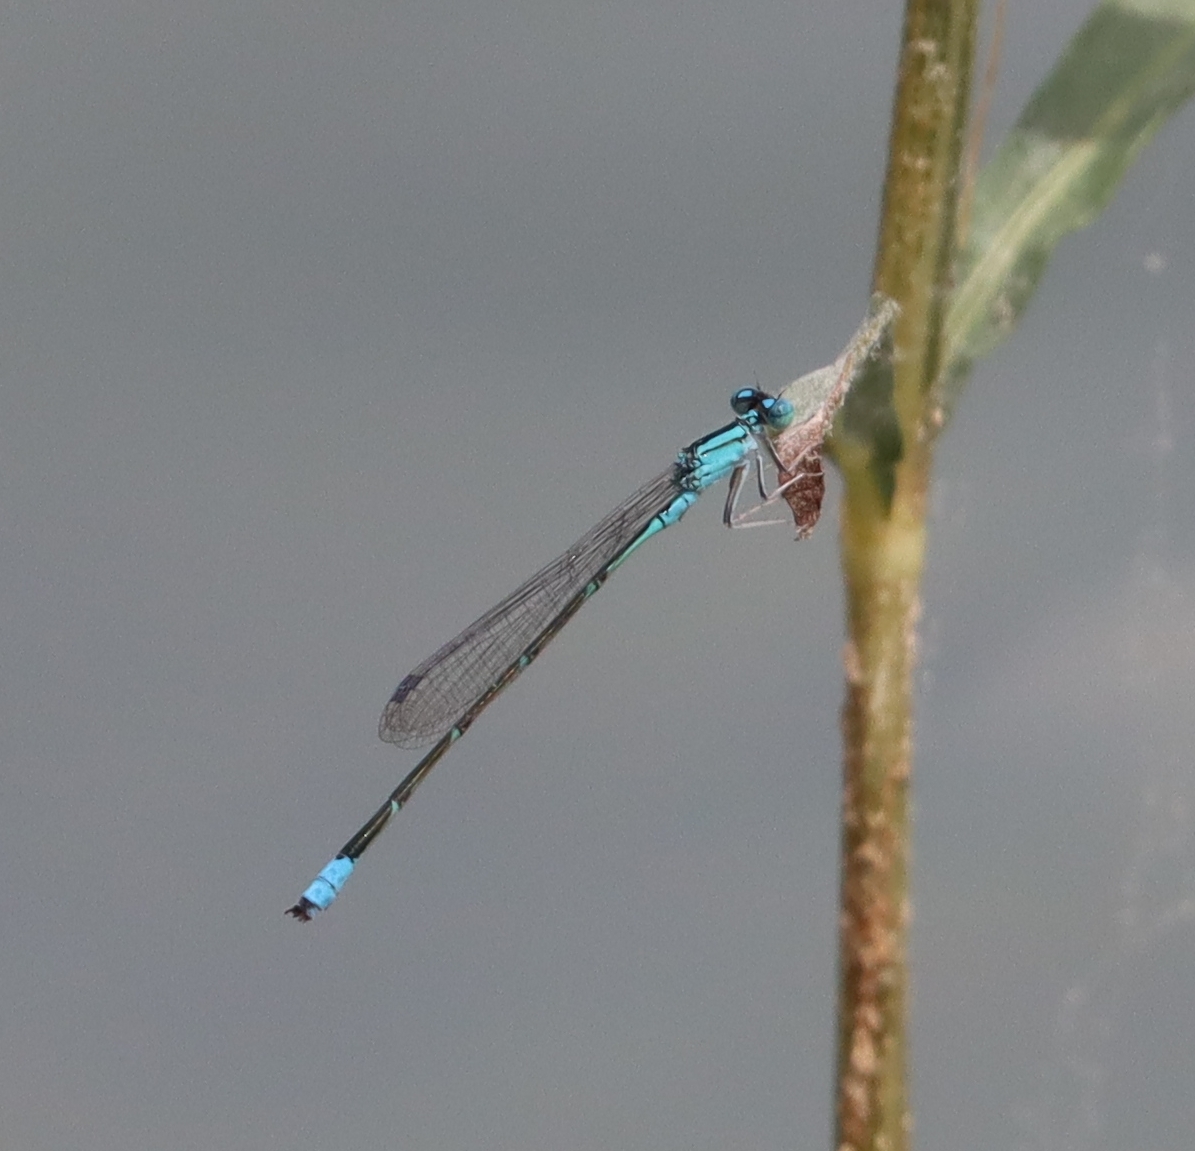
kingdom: Animalia
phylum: Arthropoda
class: Insecta
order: Odonata
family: Coenagrionidae
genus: Enallagma
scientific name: Enallagma traviatum
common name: Slender bluet
